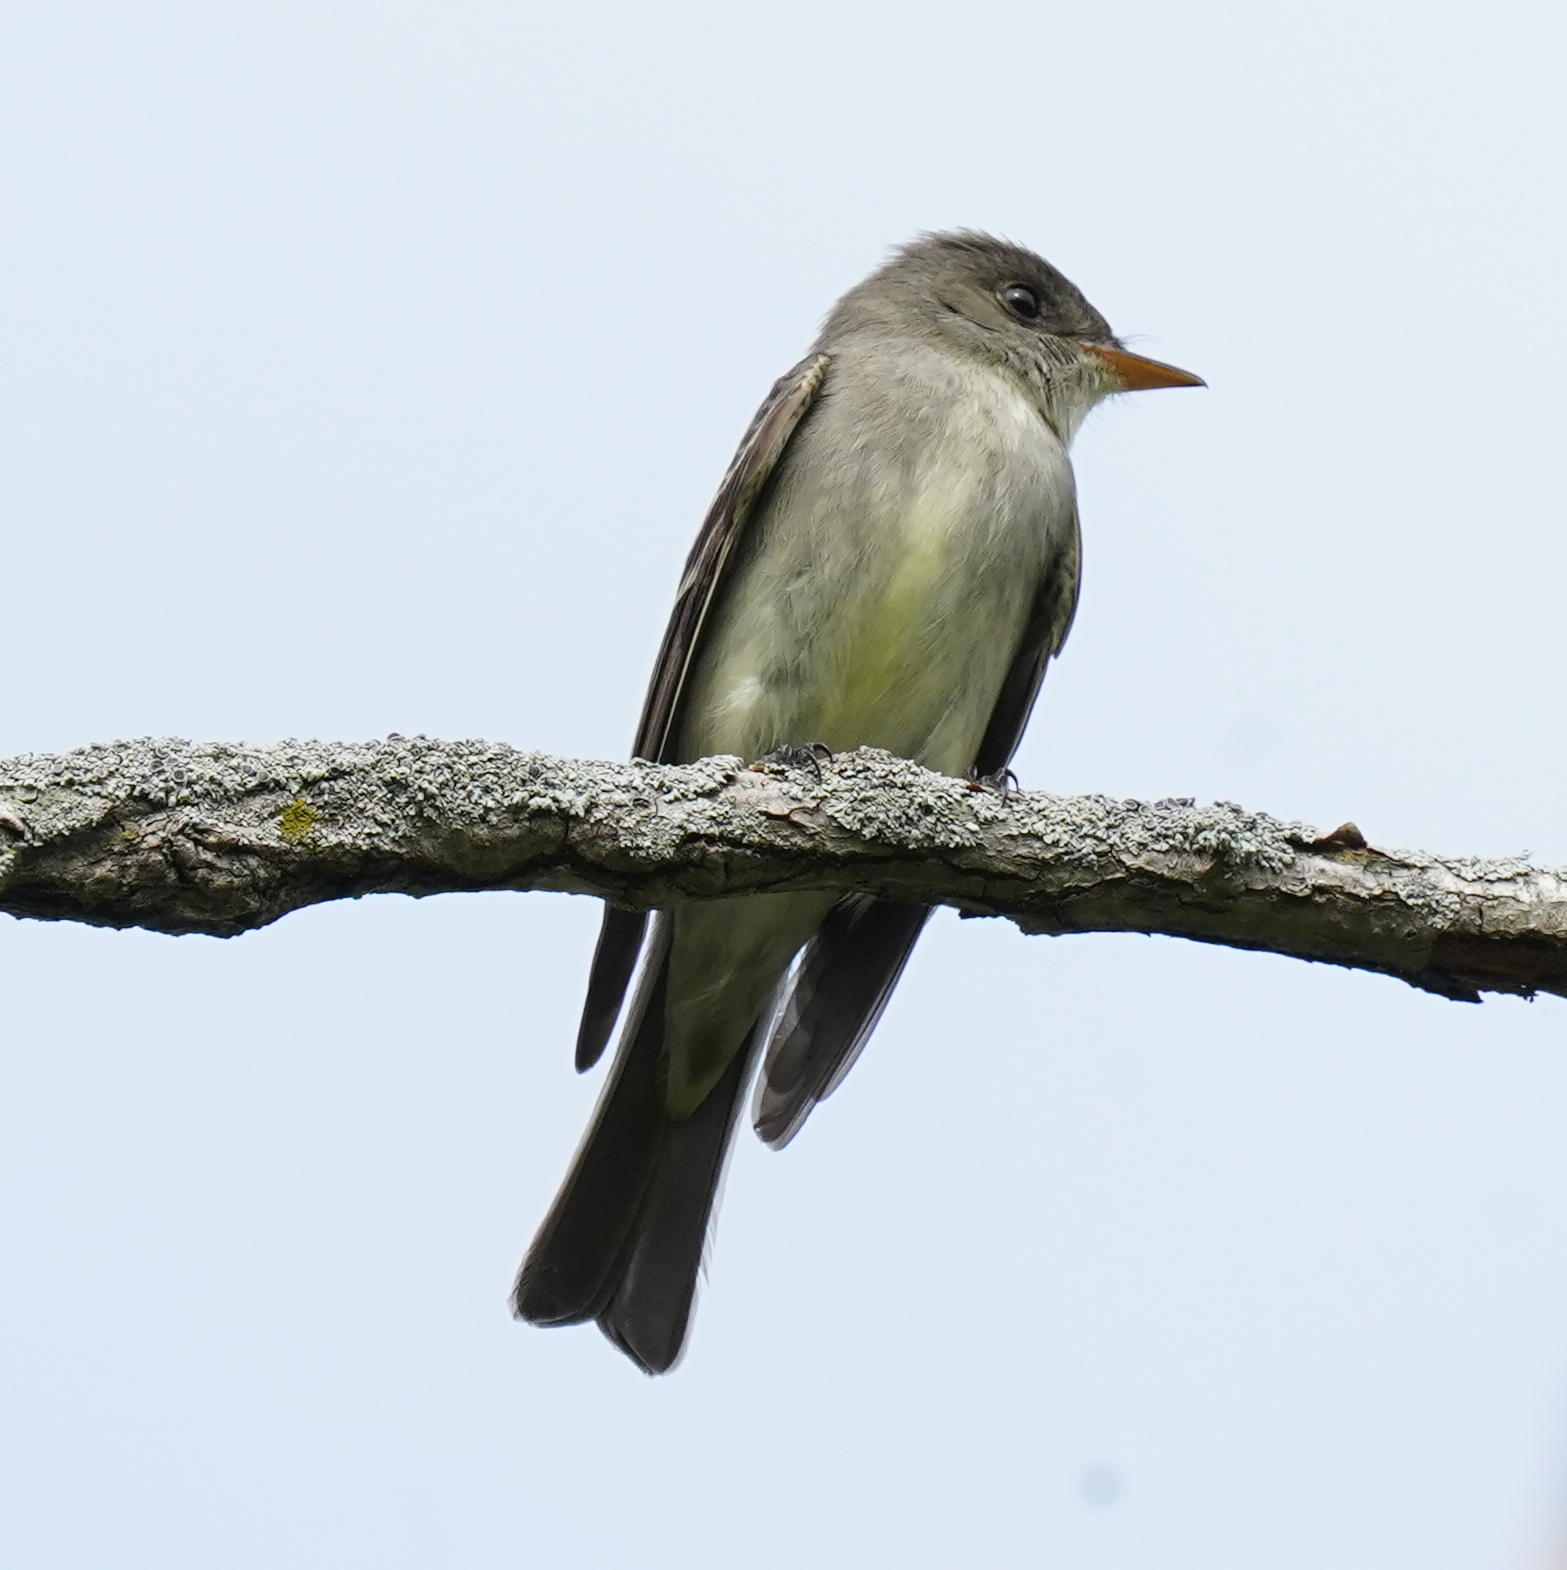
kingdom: Animalia
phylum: Chordata
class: Aves
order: Passeriformes
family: Tyrannidae
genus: Contopus
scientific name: Contopus virens
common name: Eastern wood-pewee
